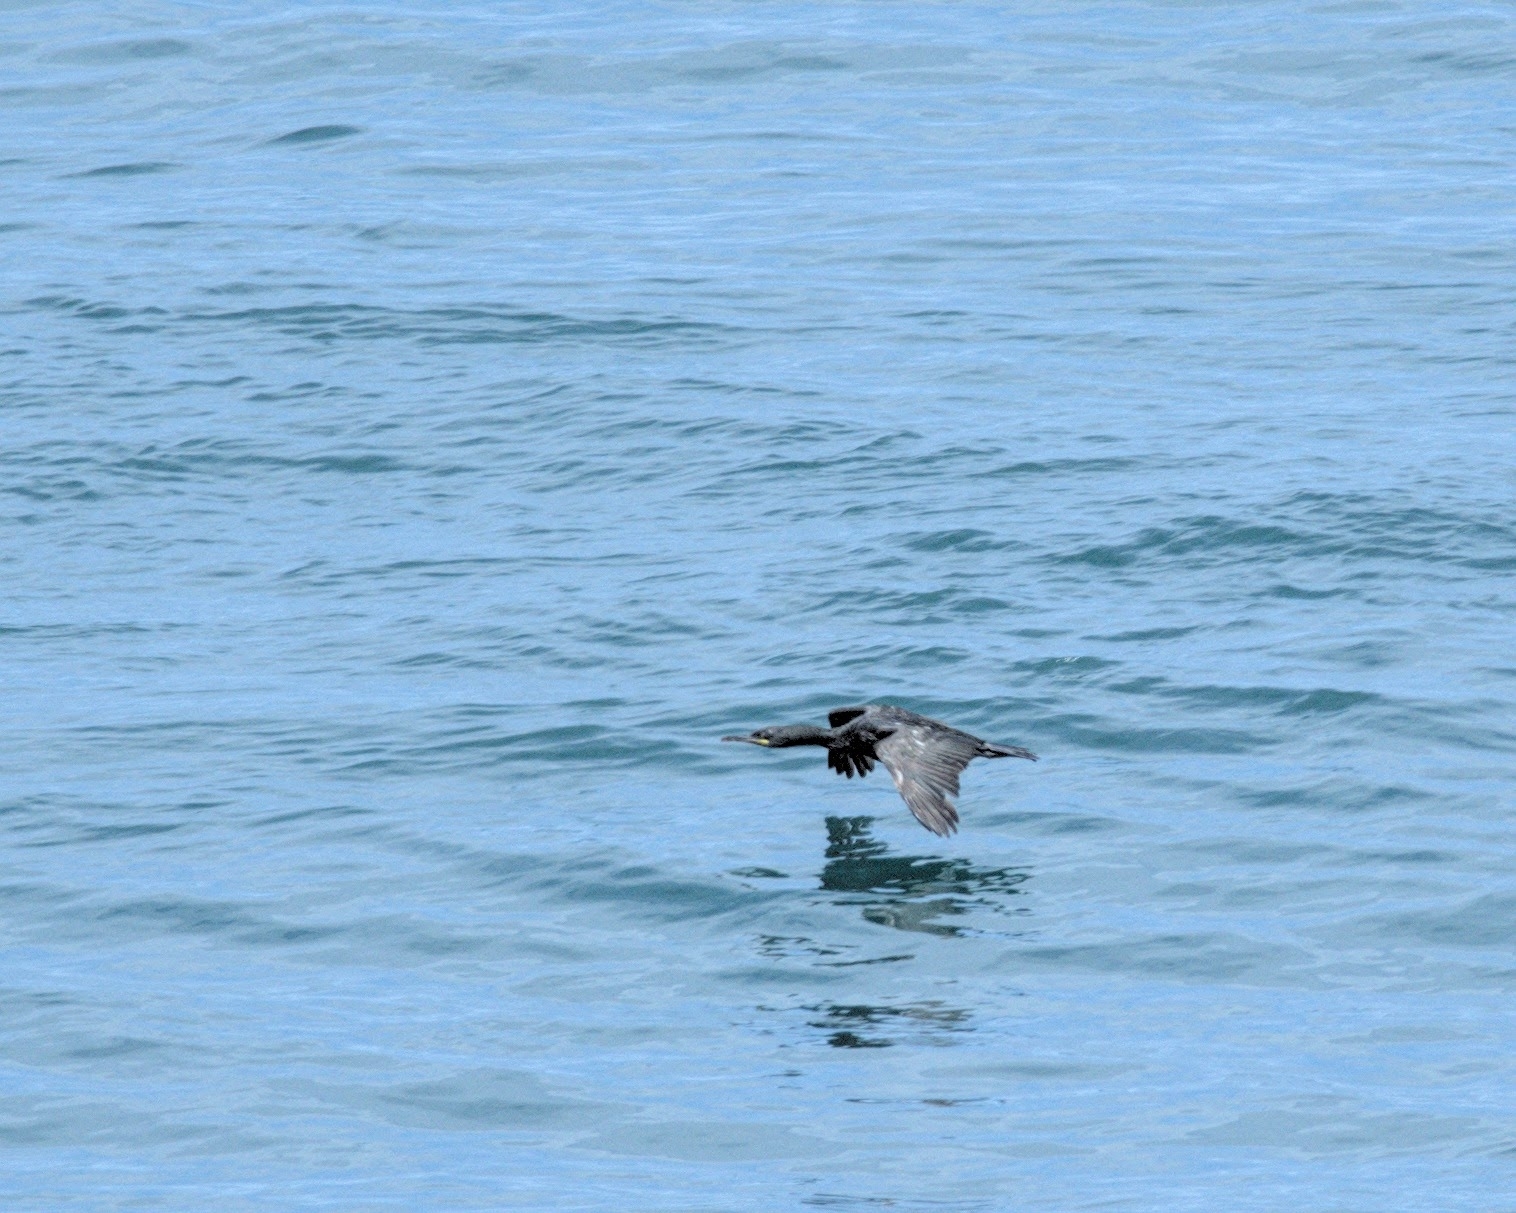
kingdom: Animalia
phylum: Chordata
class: Aves
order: Suliformes
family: Phalacrocoracidae
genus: Phalacrocorax
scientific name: Phalacrocorax aristotelis
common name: European shag
